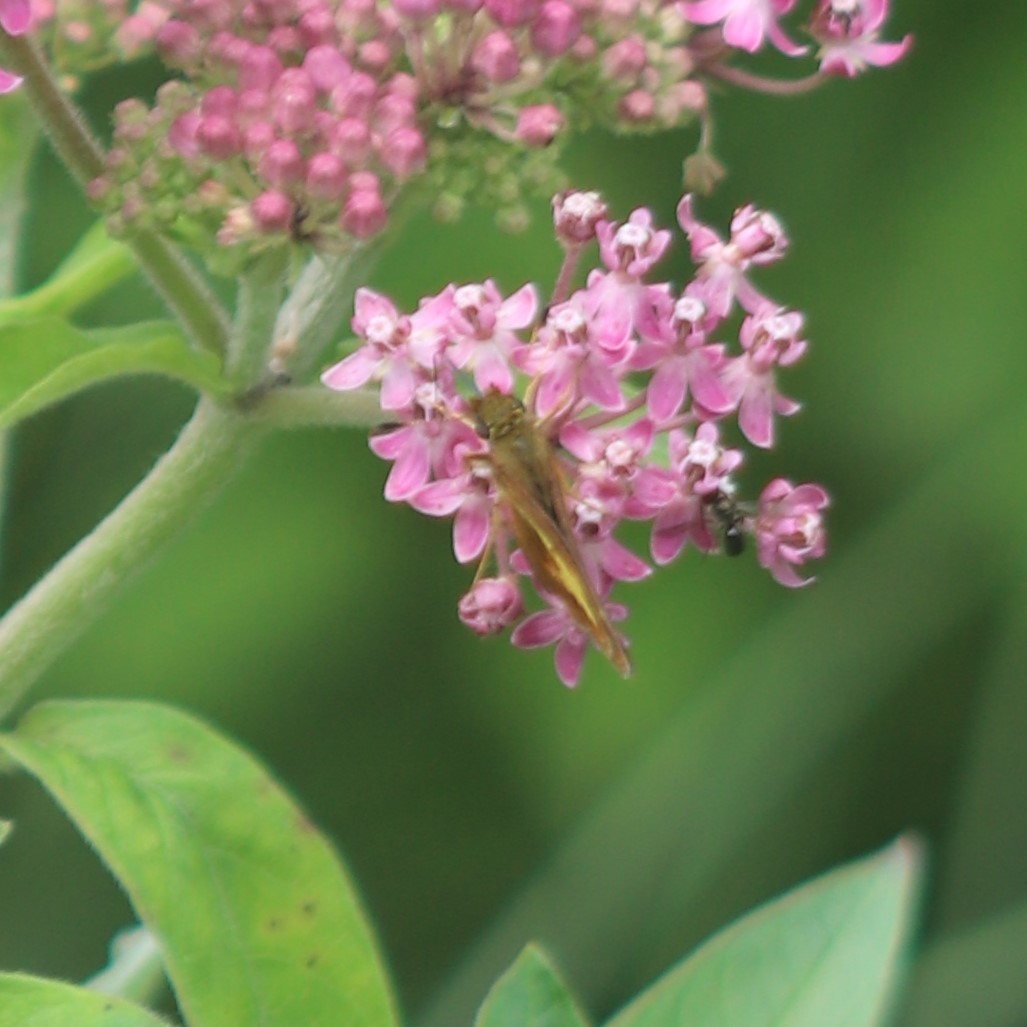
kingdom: Animalia
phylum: Arthropoda
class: Insecta
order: Lepidoptera
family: Hesperiidae
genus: Poanes
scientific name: Poanes massasoit
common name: Mulberrywing
